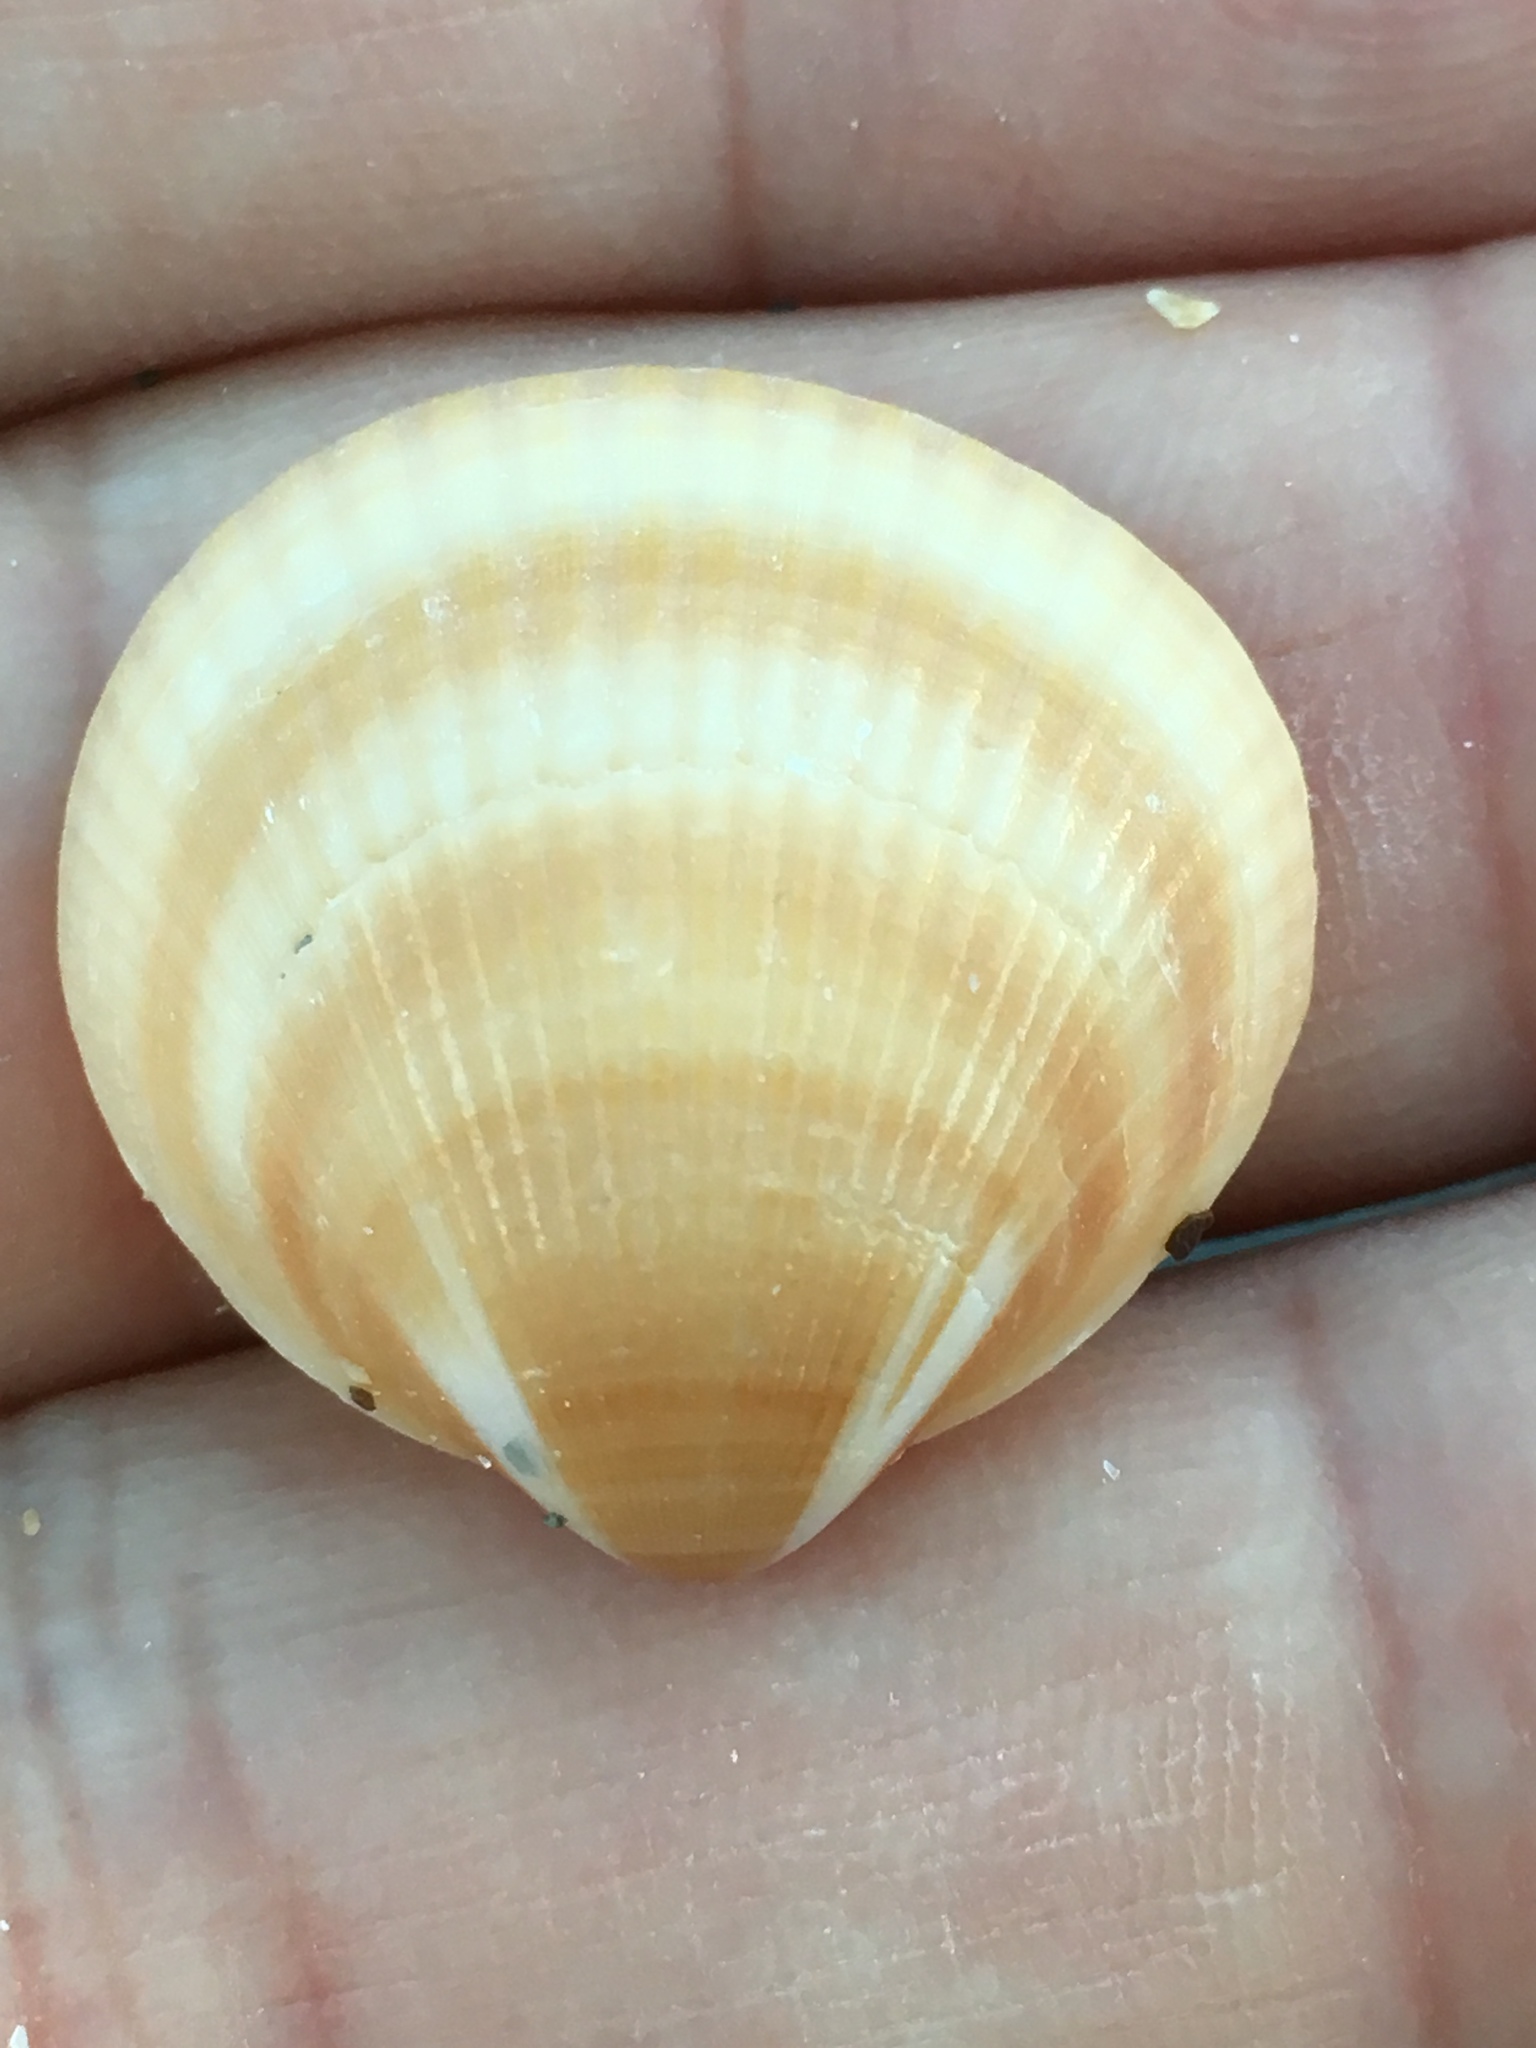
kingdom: Animalia
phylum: Mollusca
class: Bivalvia
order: Arcida
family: Glycymerididae
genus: Glycymeris
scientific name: Glycymeris spectralis
